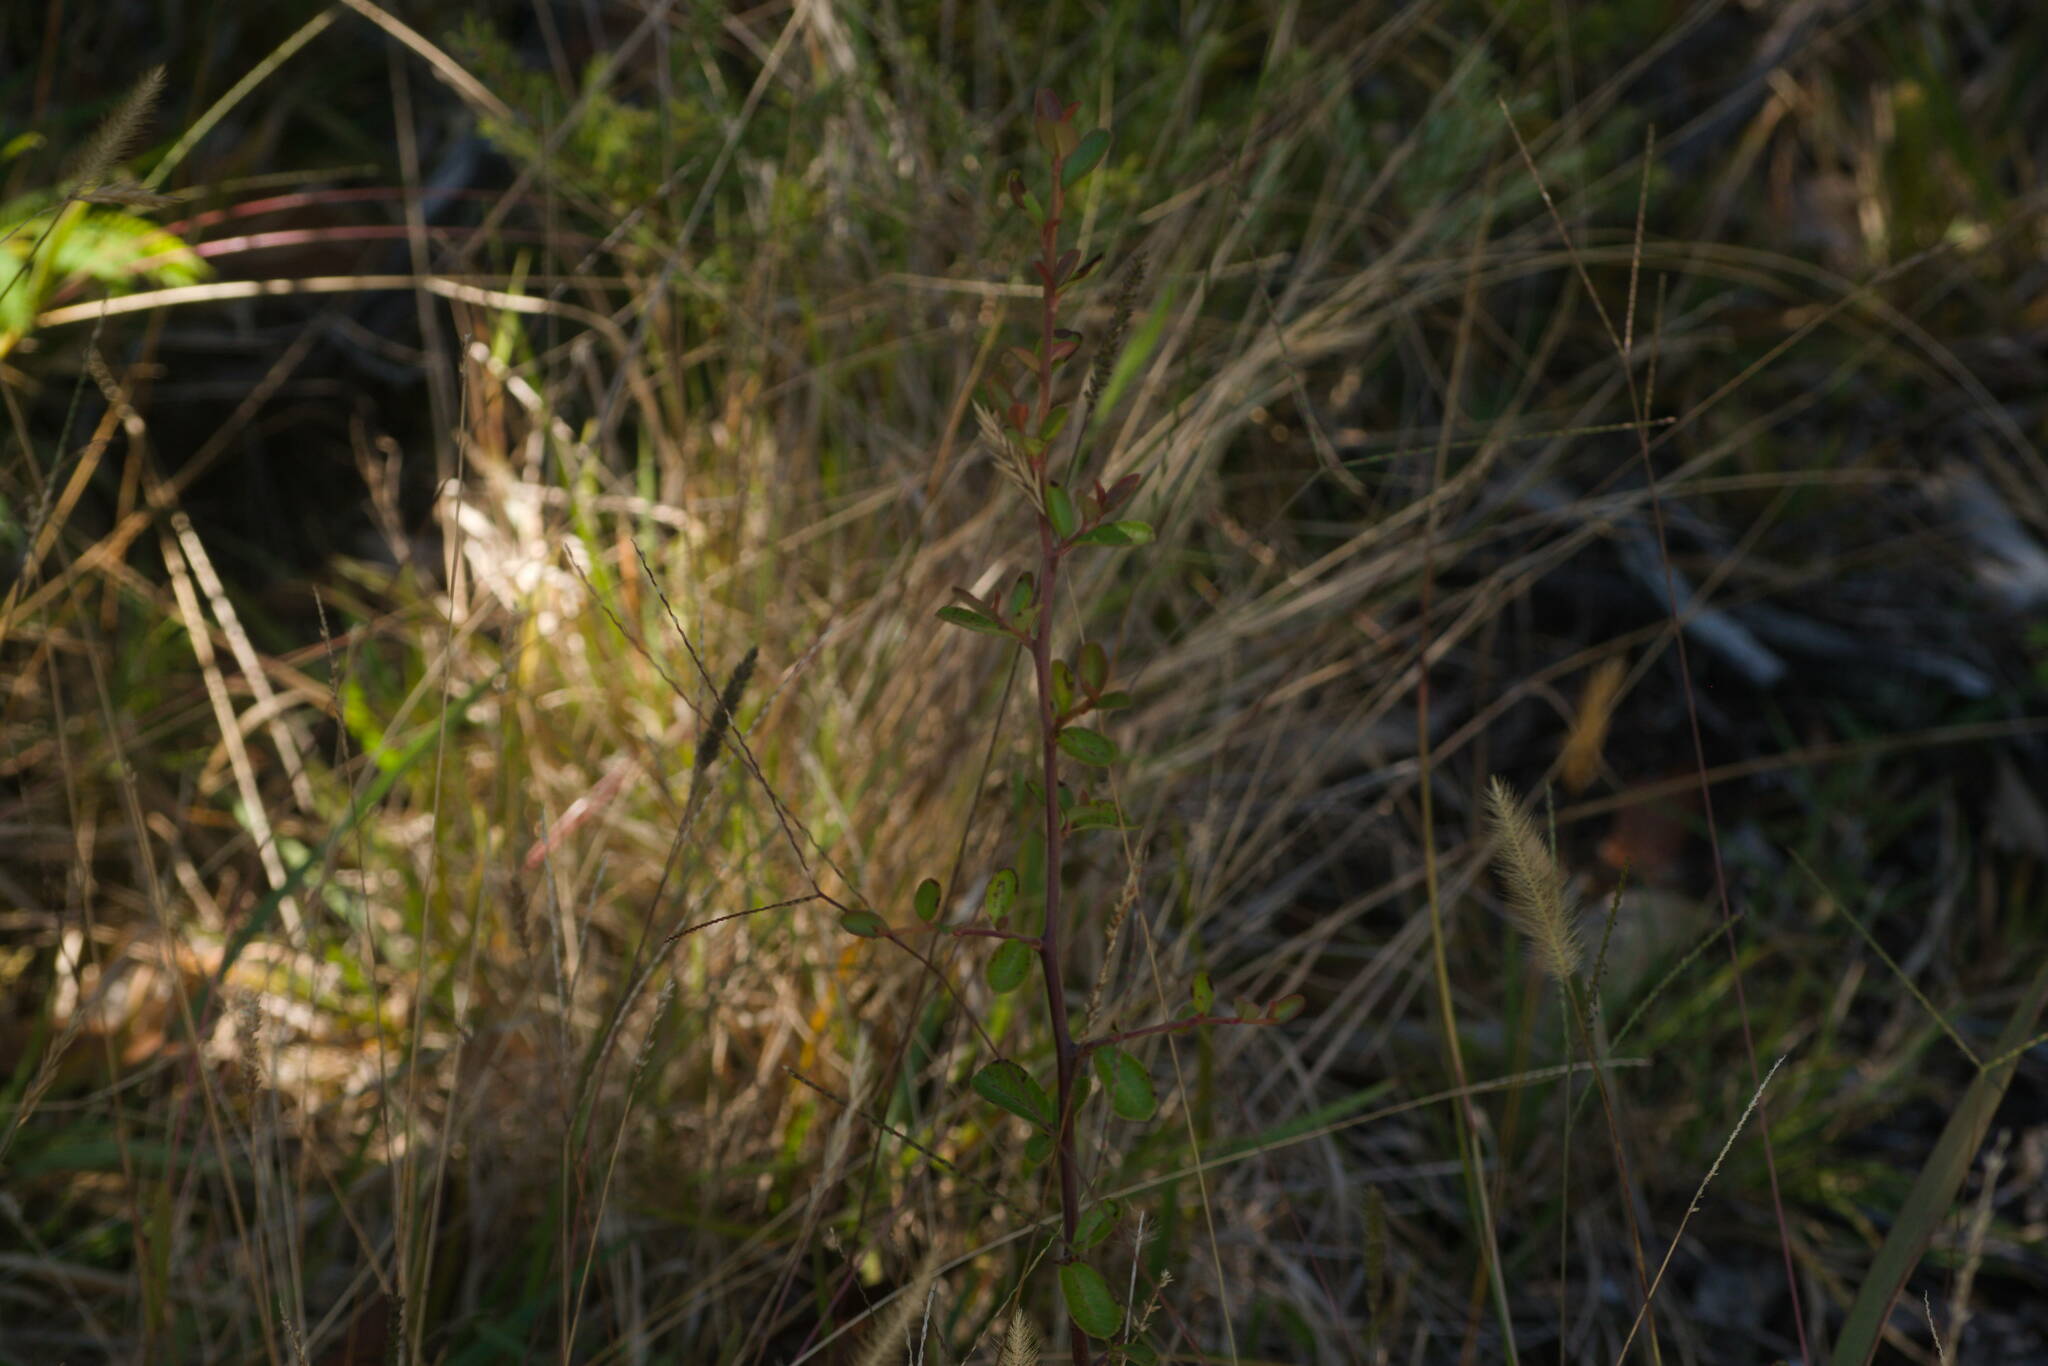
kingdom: Plantae
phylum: Tracheophyta
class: Magnoliopsida
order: Rosales
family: Rosaceae
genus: Pyracantha
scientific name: Pyracantha fortuneana
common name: Chinese firethorn
